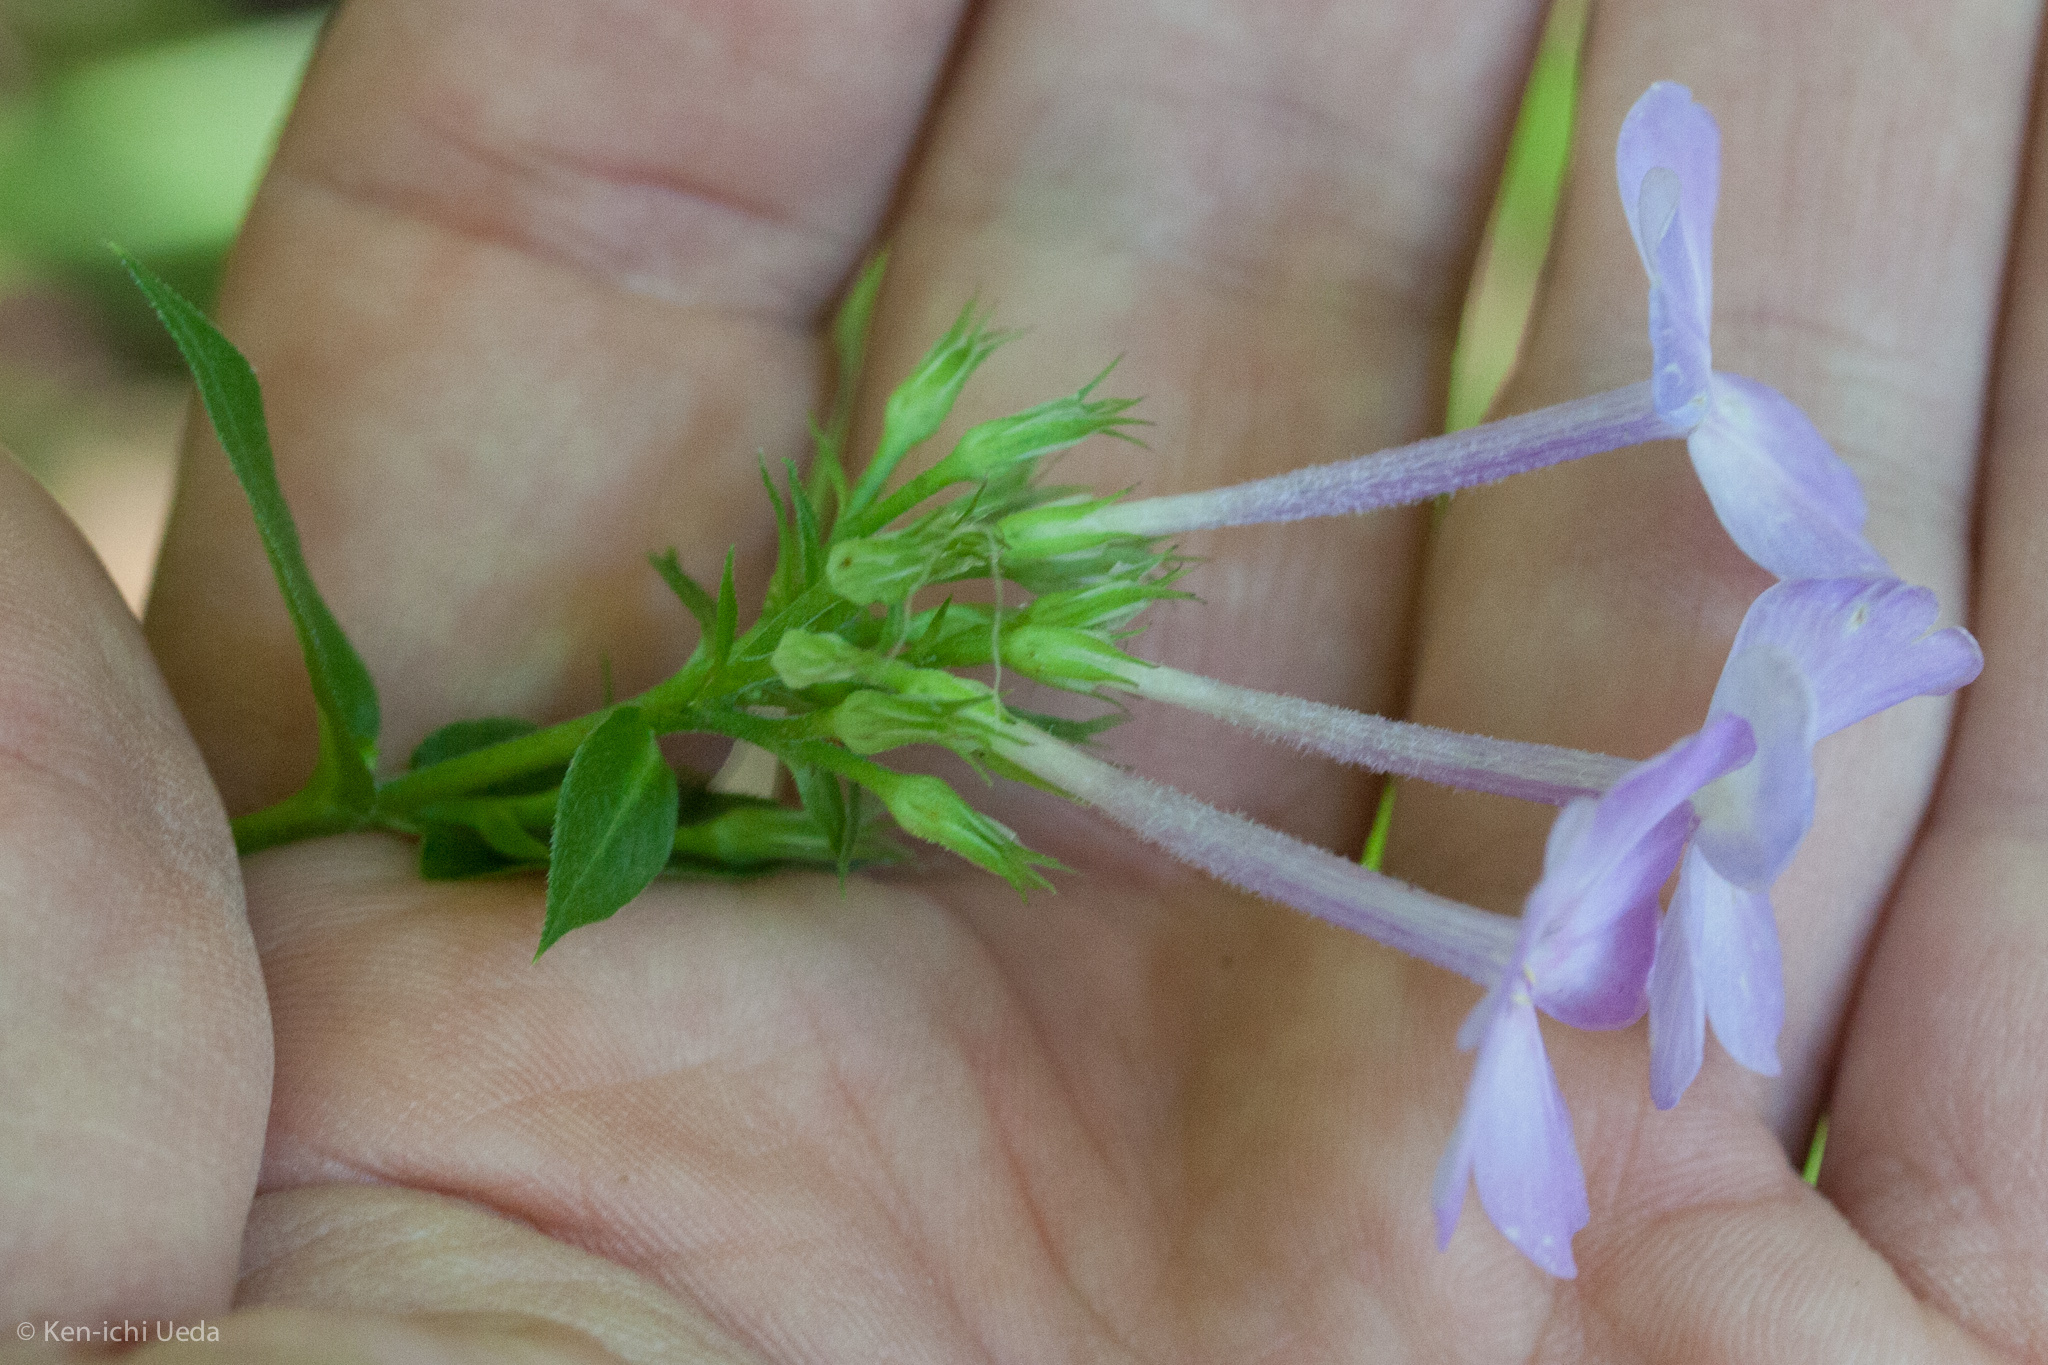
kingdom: Plantae
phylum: Tracheophyta
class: Magnoliopsida
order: Ericales
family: Polemoniaceae
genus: Phlox
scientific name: Phlox paniculata
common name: Fall phlox
